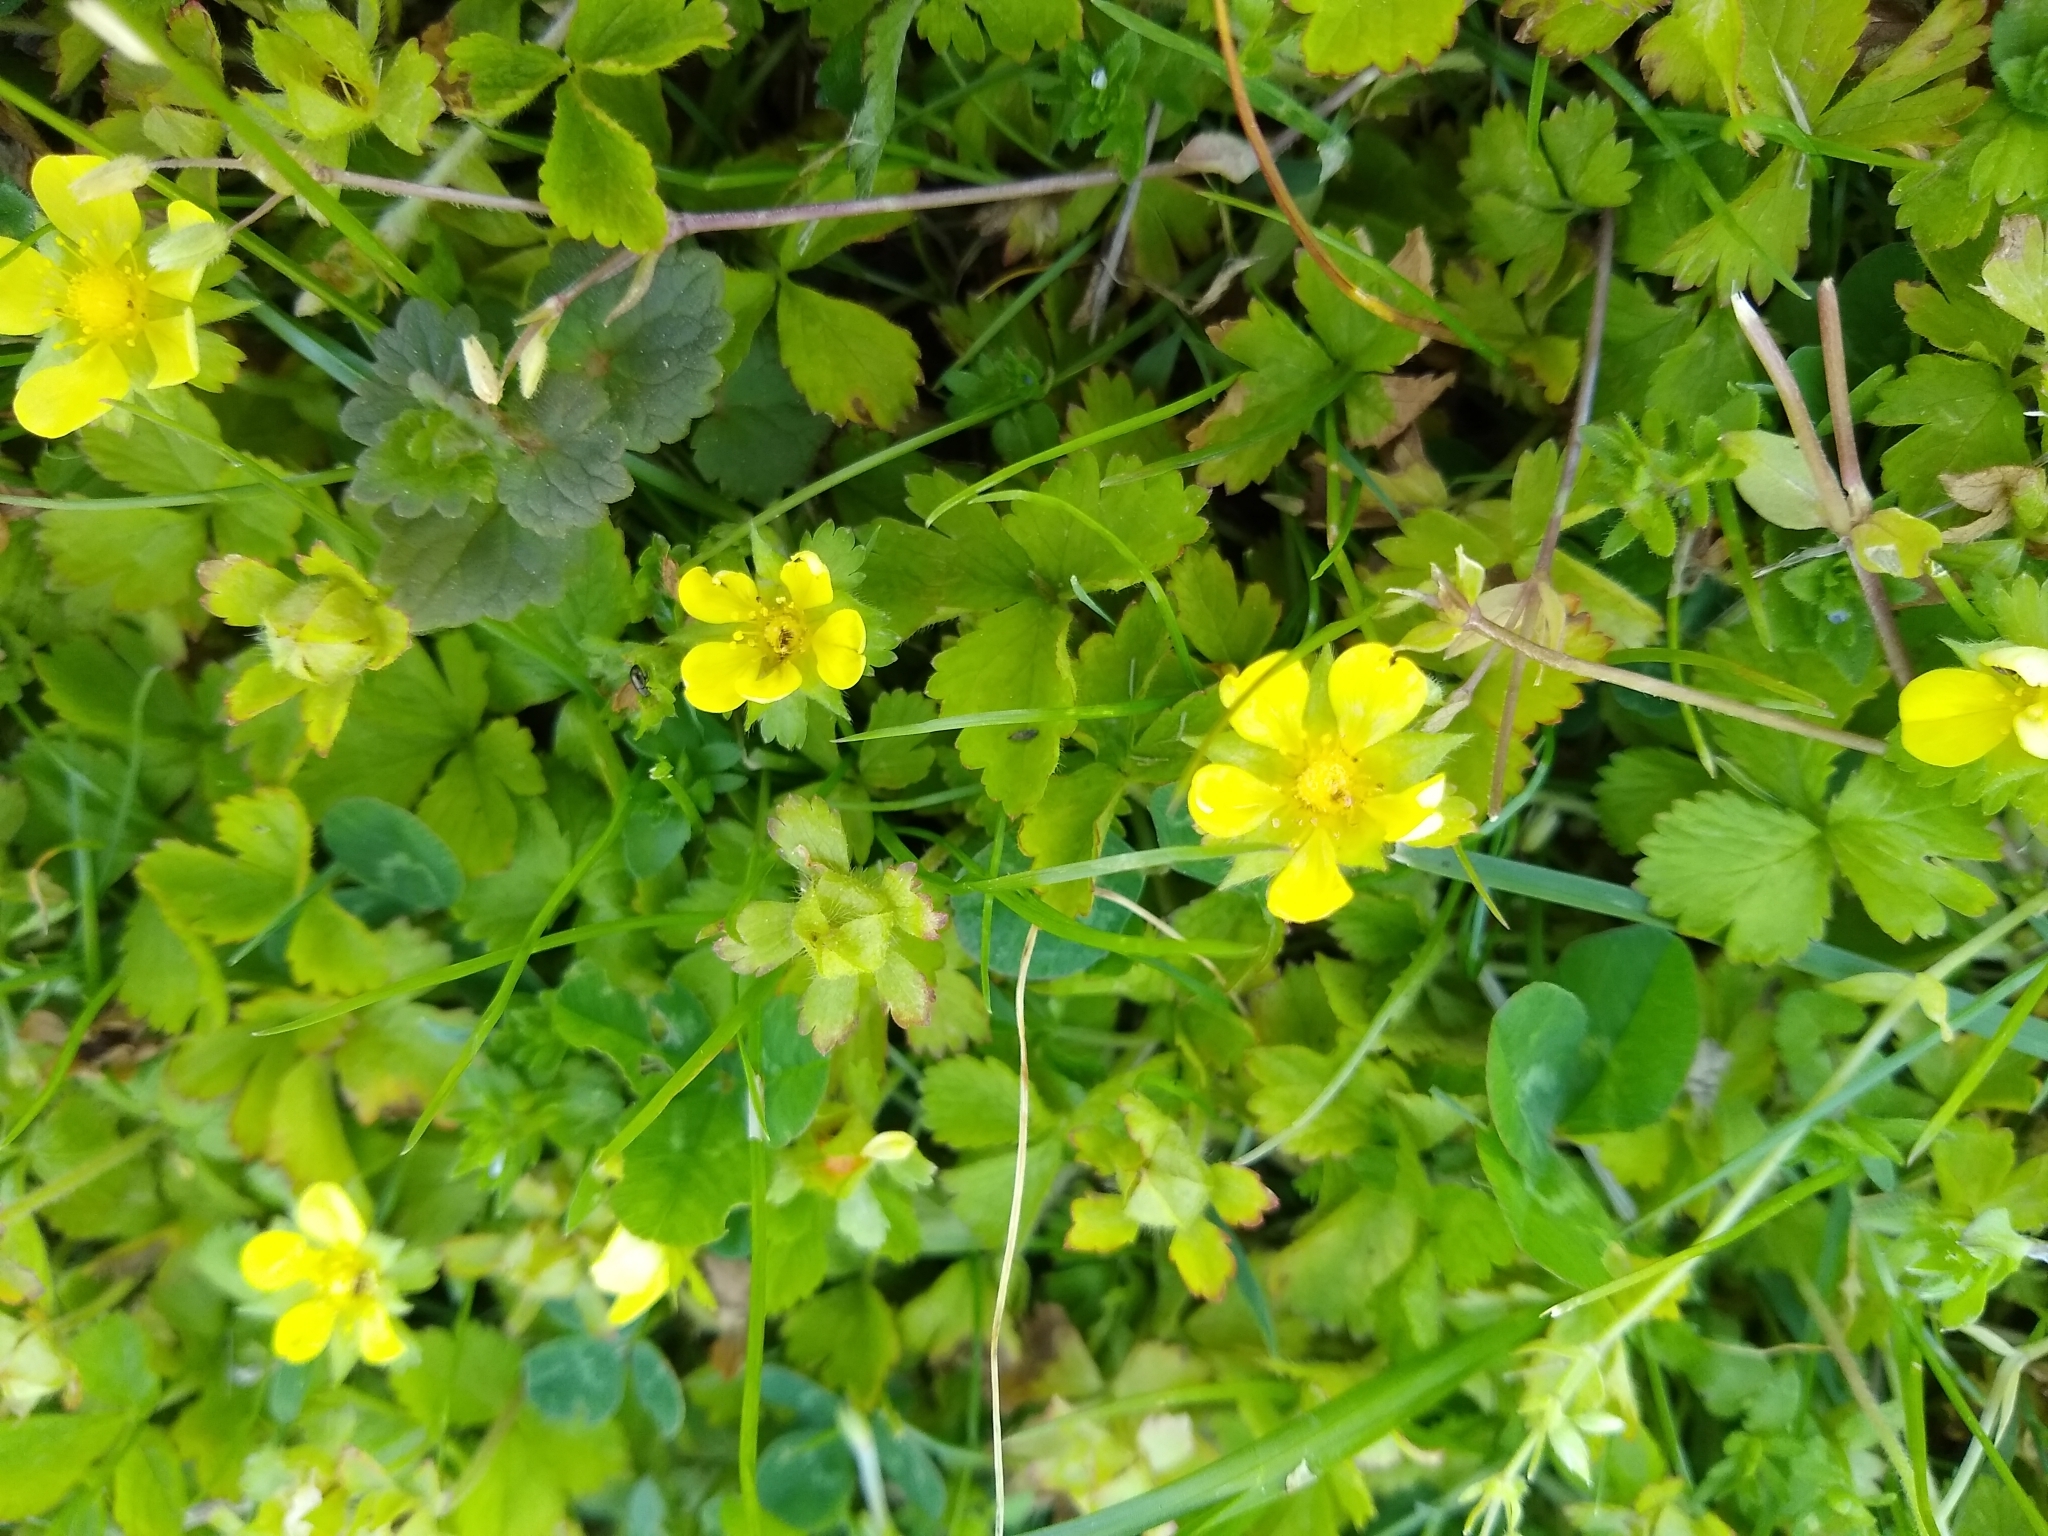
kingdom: Plantae
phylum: Tracheophyta
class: Magnoliopsida
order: Rosales
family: Rosaceae
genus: Potentilla
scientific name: Potentilla indica
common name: Yellow-flowered strawberry
